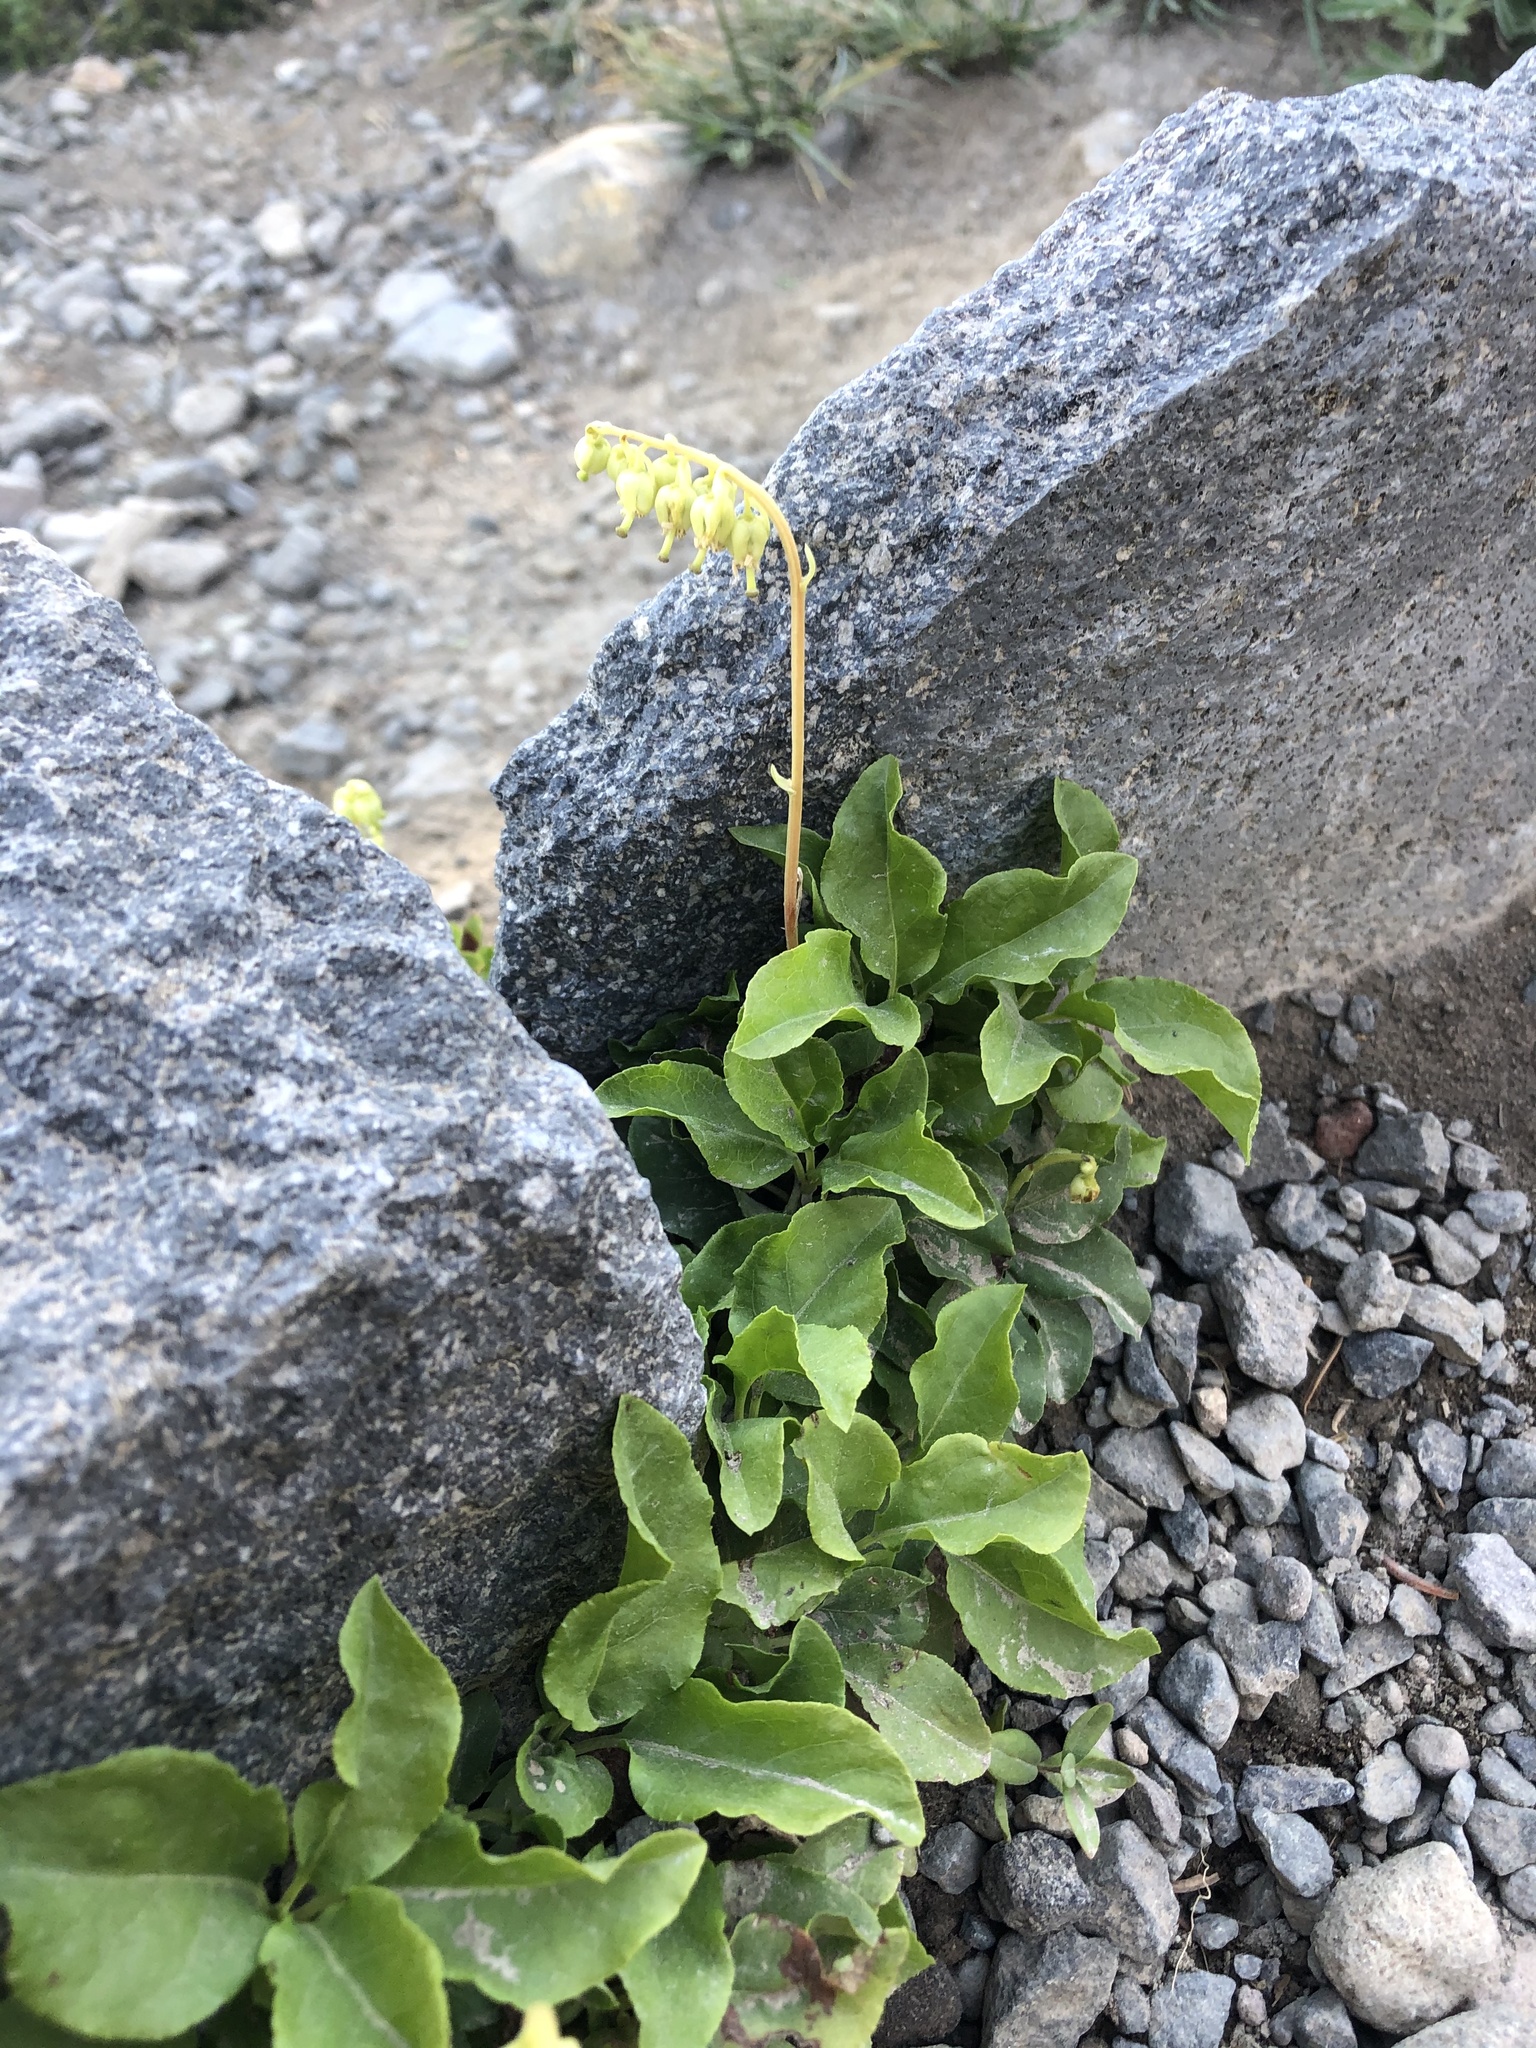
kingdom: Plantae
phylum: Tracheophyta
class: Magnoliopsida
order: Ericales
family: Ericaceae
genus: Orthilia
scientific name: Orthilia secunda
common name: One-sided orthilia
